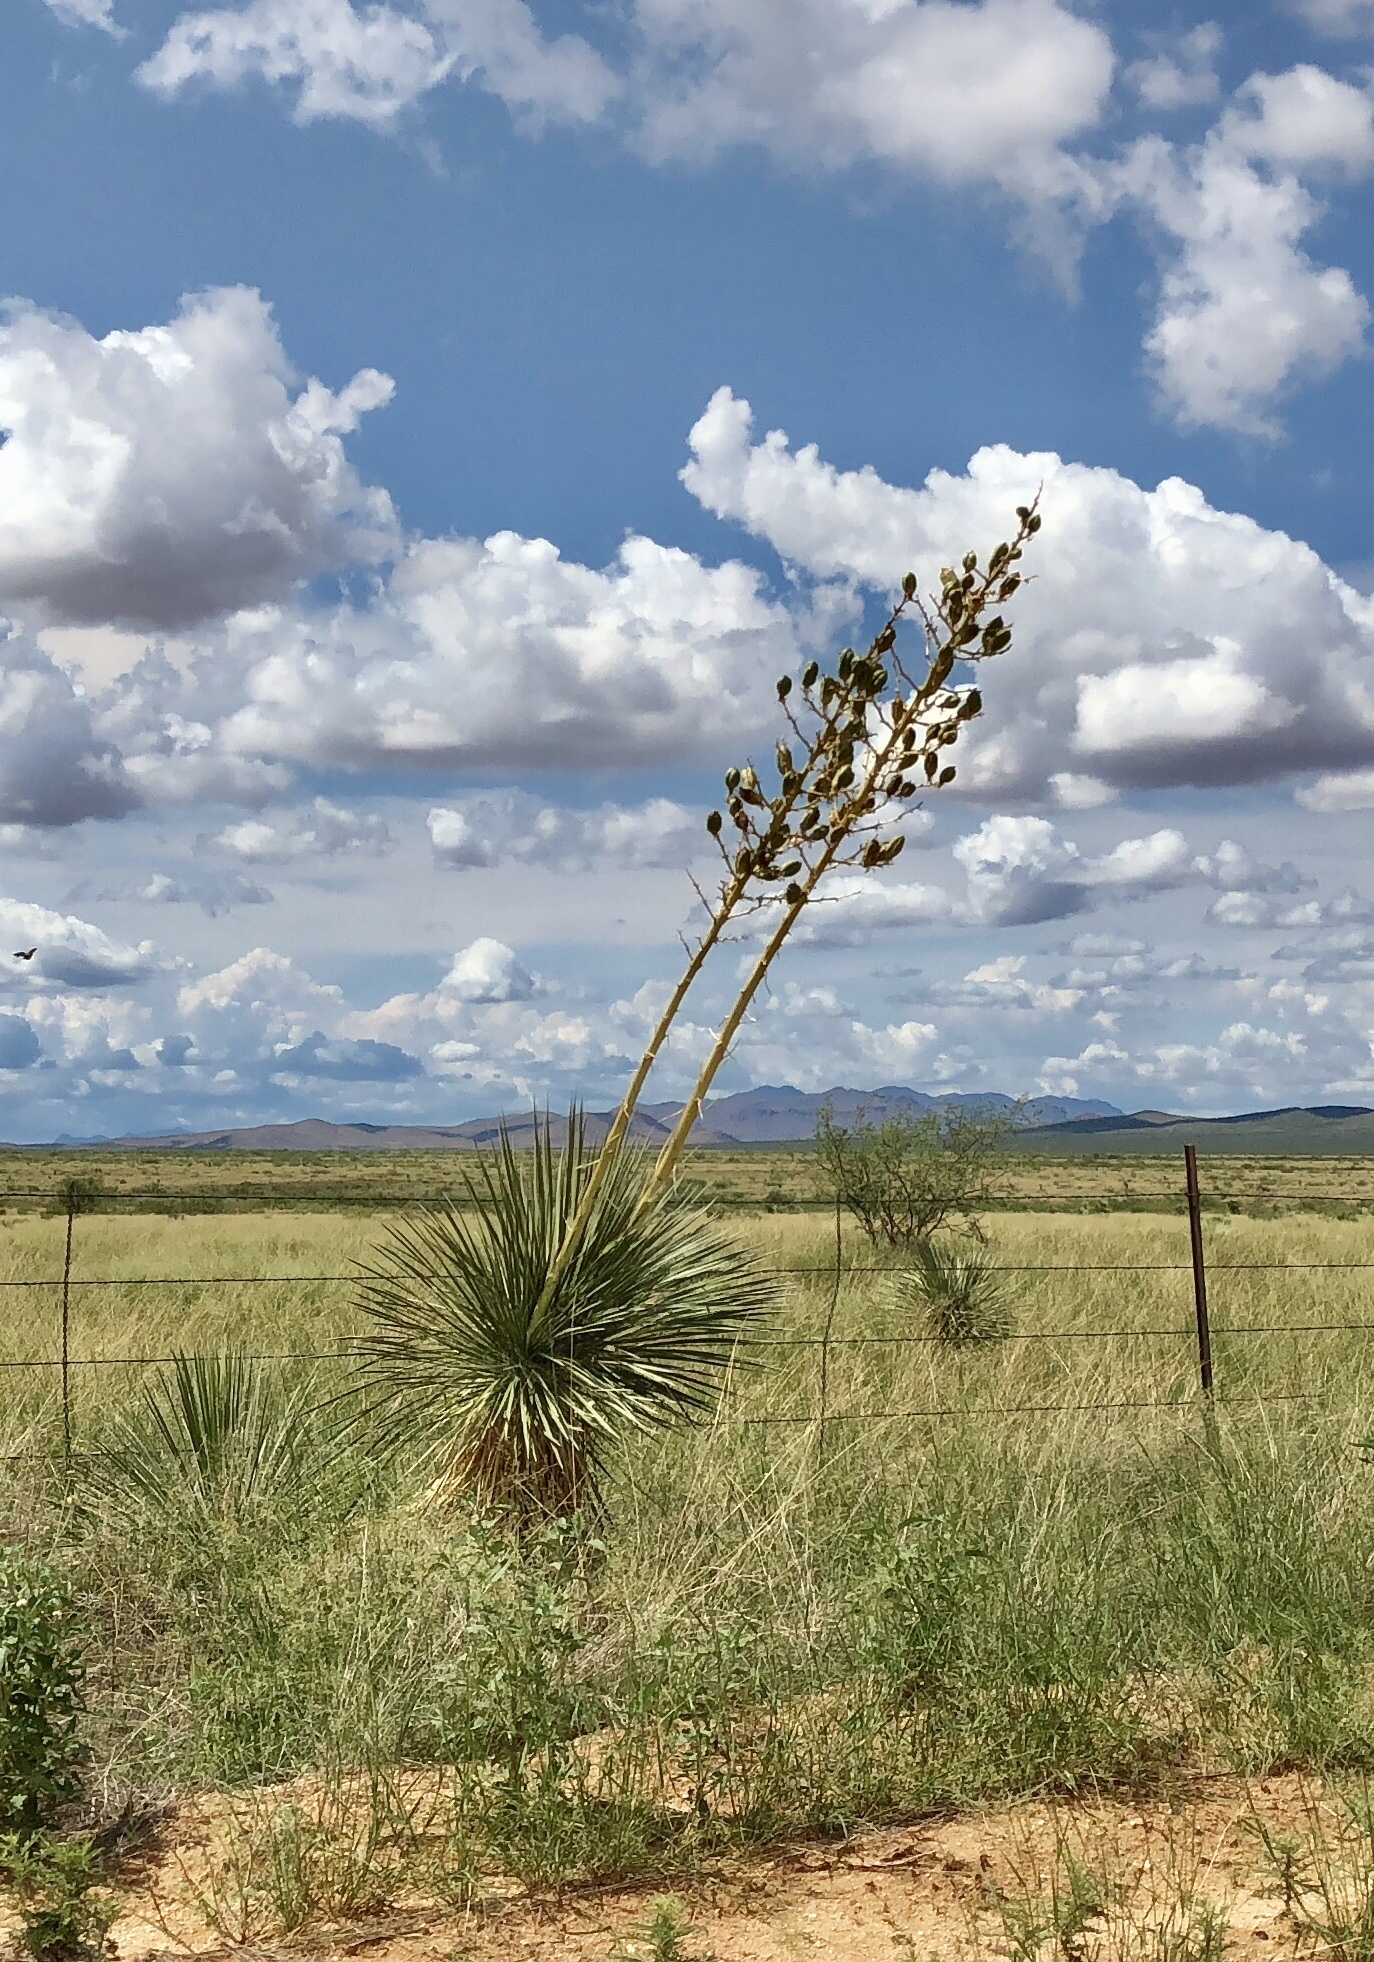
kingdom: Plantae
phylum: Tracheophyta
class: Liliopsida
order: Asparagales
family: Asparagaceae
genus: Yucca
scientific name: Yucca elata
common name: Palmella
